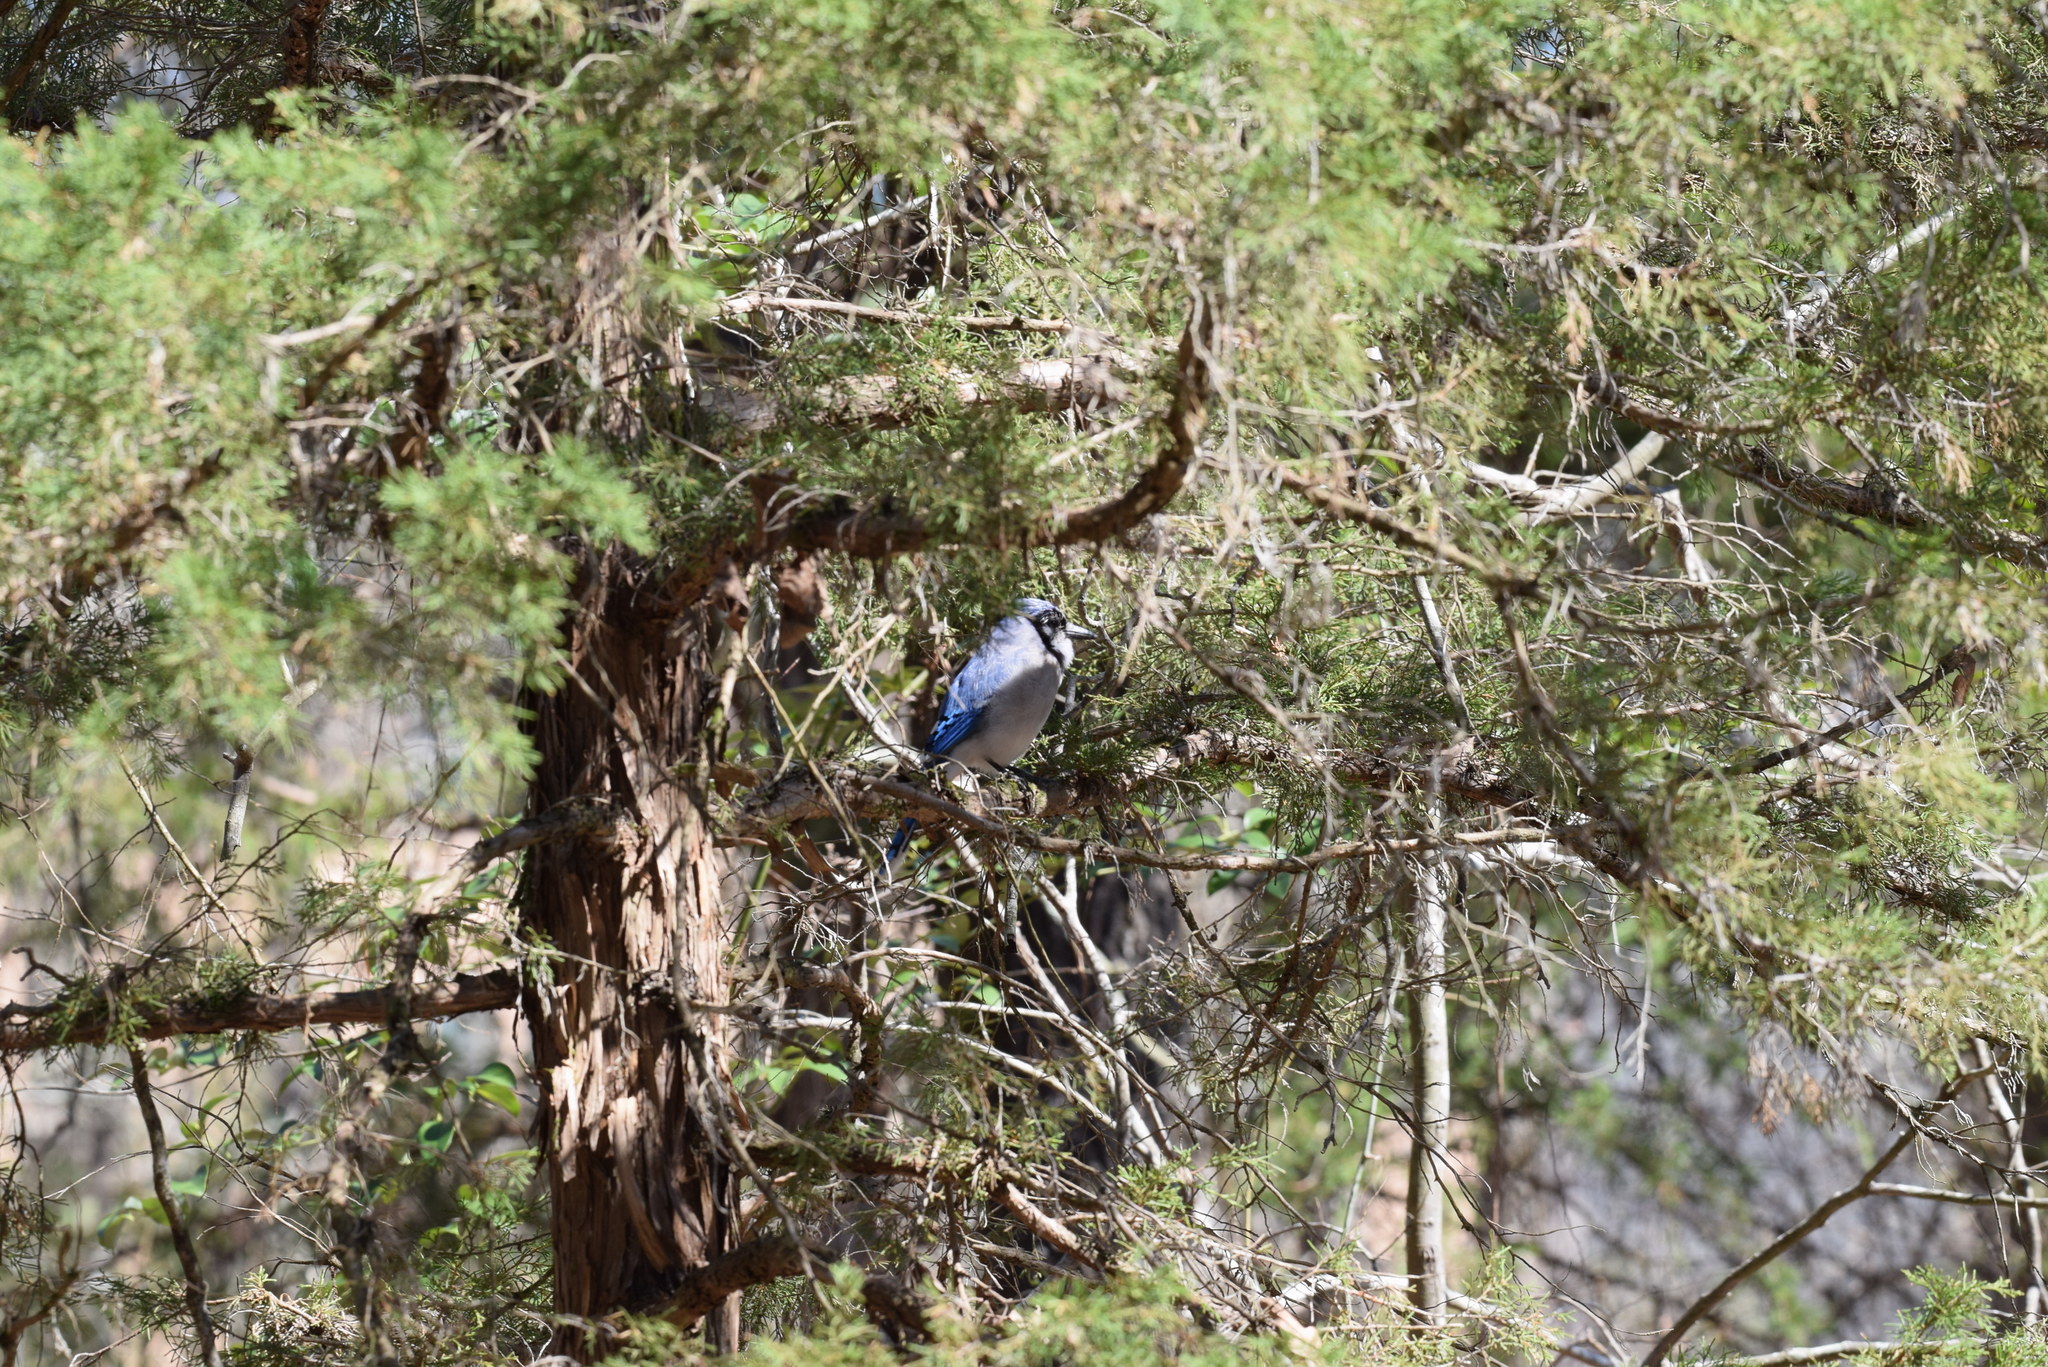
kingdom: Animalia
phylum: Chordata
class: Aves
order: Passeriformes
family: Corvidae
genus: Cyanocitta
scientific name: Cyanocitta cristata
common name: Blue jay
